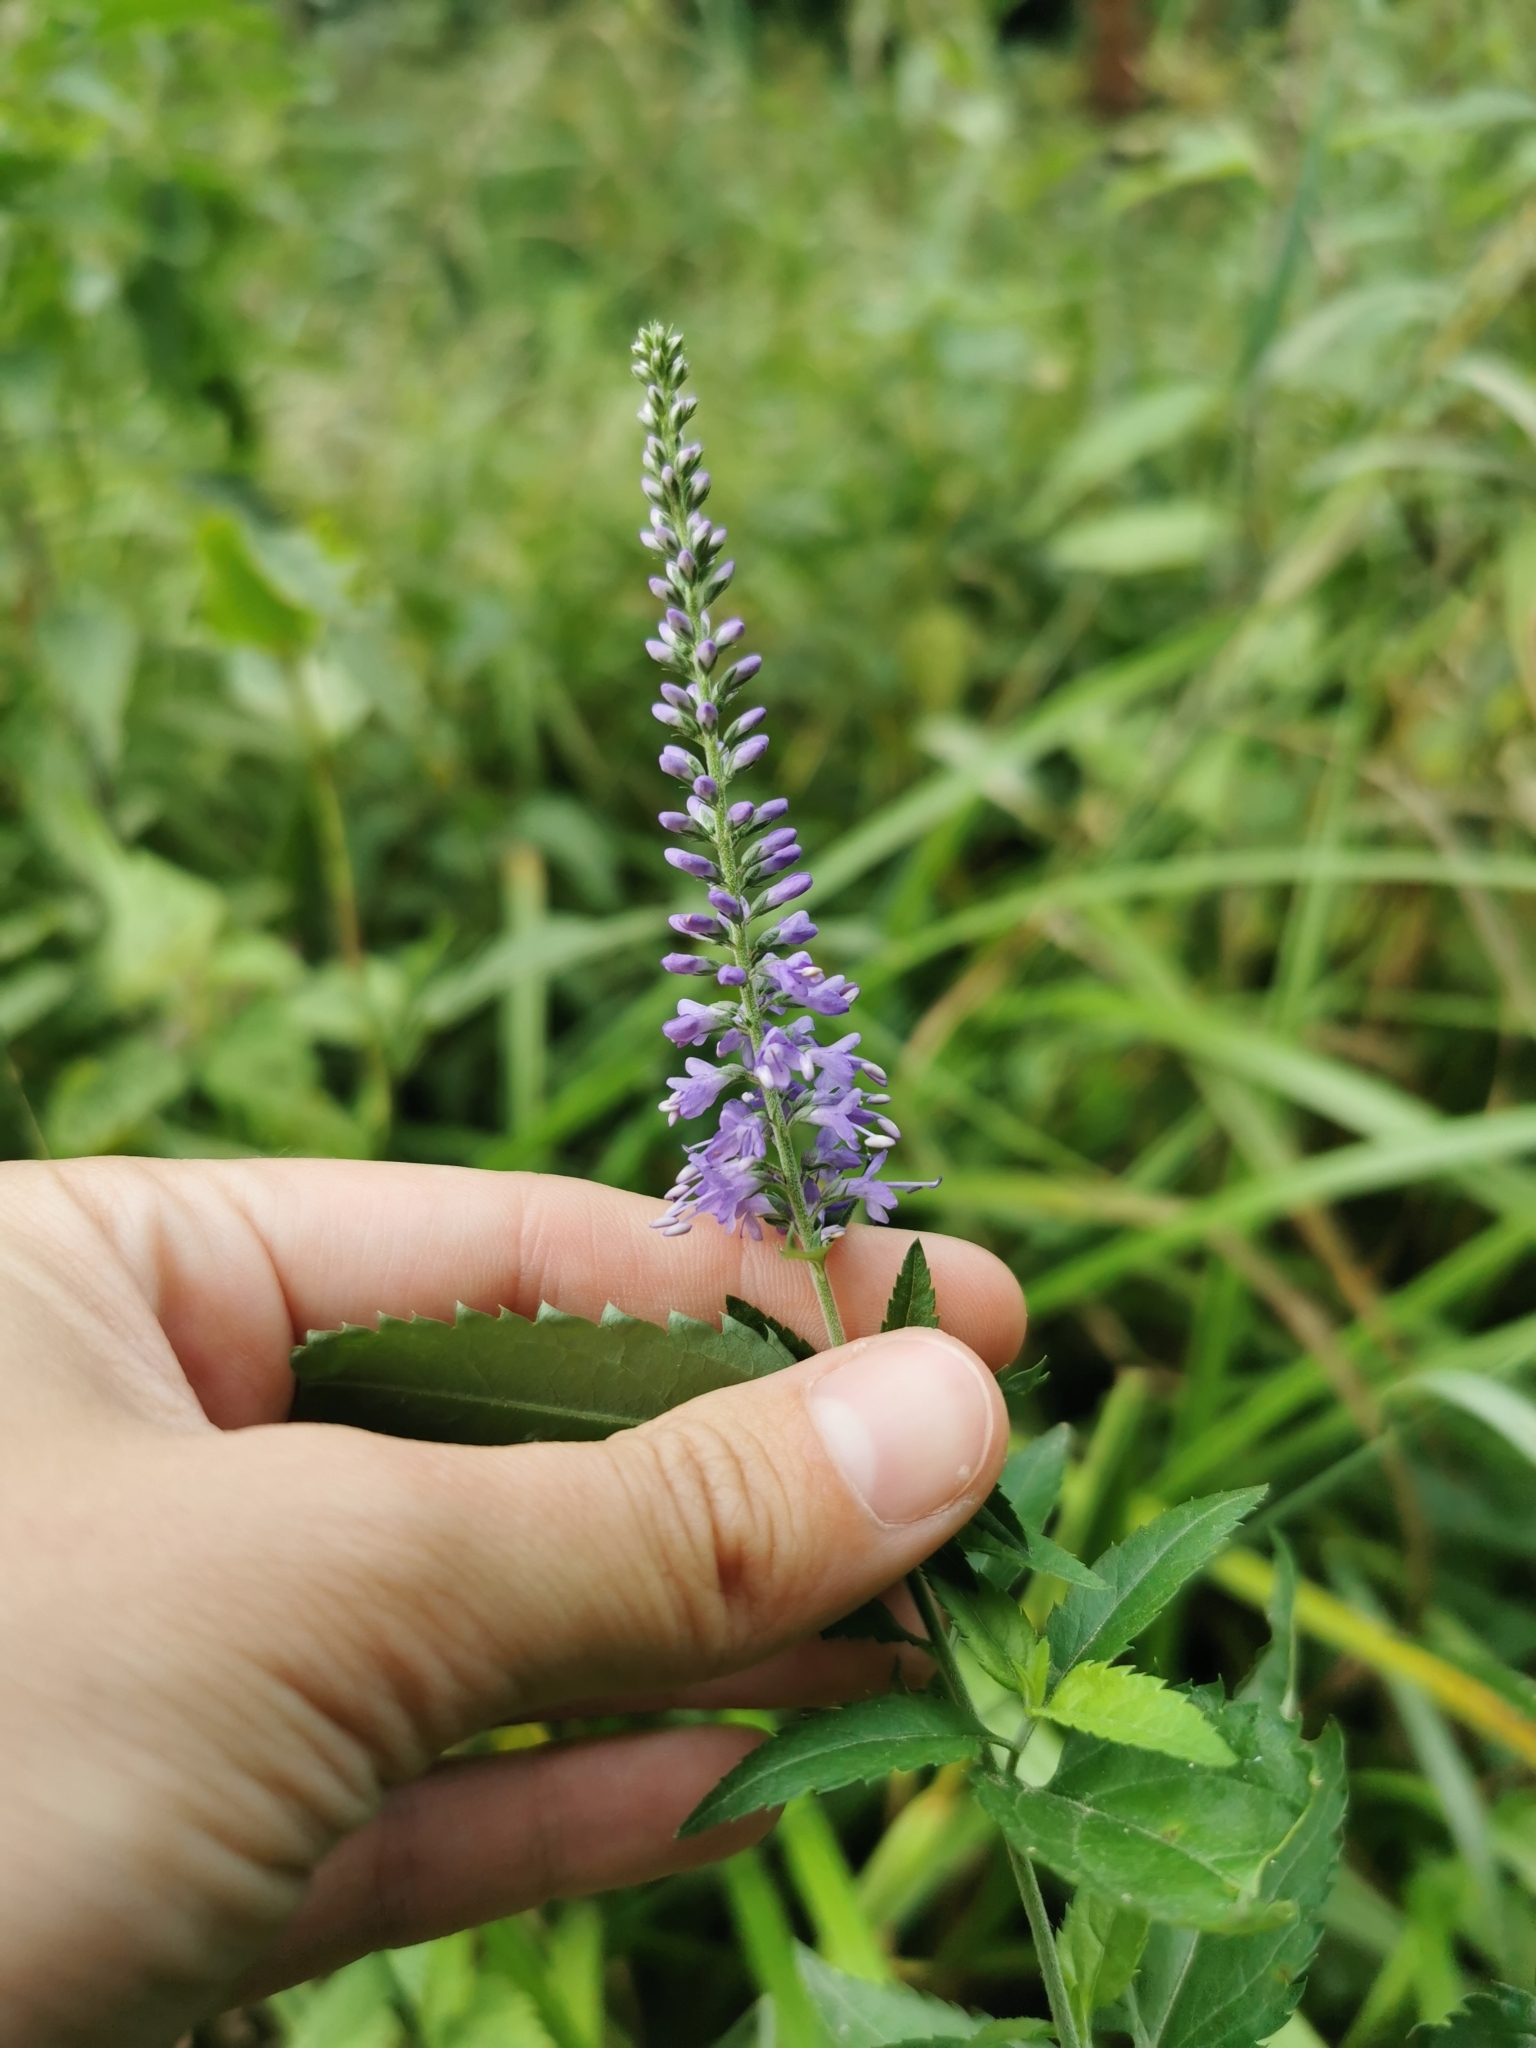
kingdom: Plantae
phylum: Tracheophyta
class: Magnoliopsida
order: Lamiales
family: Plantaginaceae
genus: Veronica
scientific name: Veronica longifolia
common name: Garden speedwell
